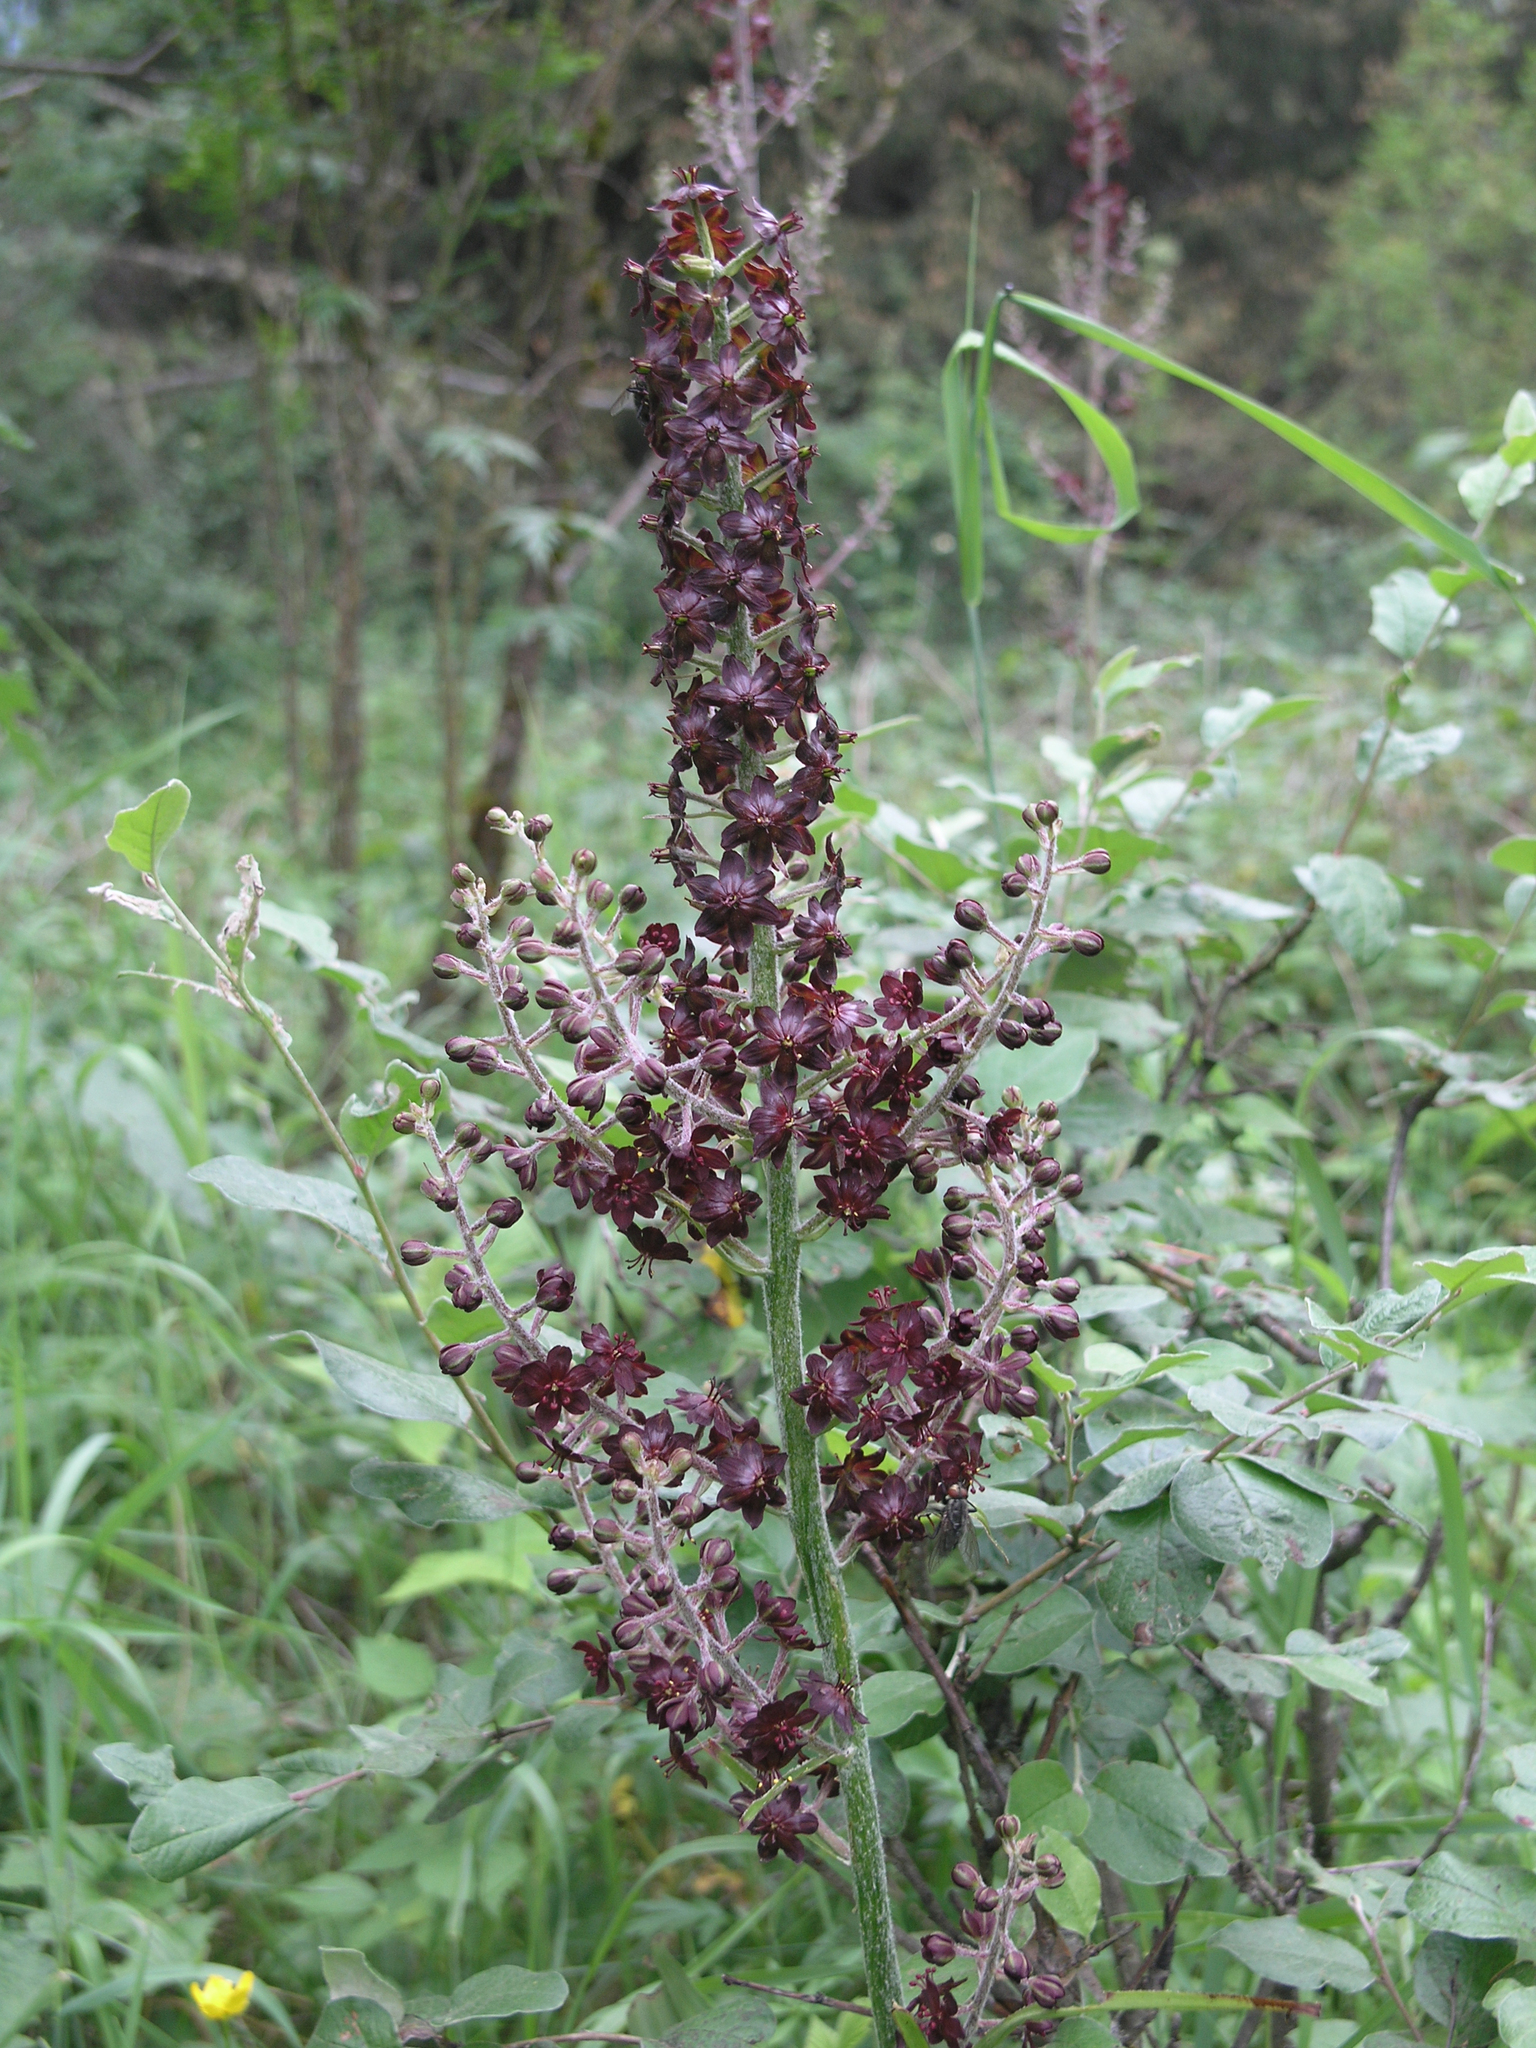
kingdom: Plantae
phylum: Tracheophyta
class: Liliopsida
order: Liliales
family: Melanthiaceae
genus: Veratrum
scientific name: Veratrum nigrum
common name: Black veratrum
